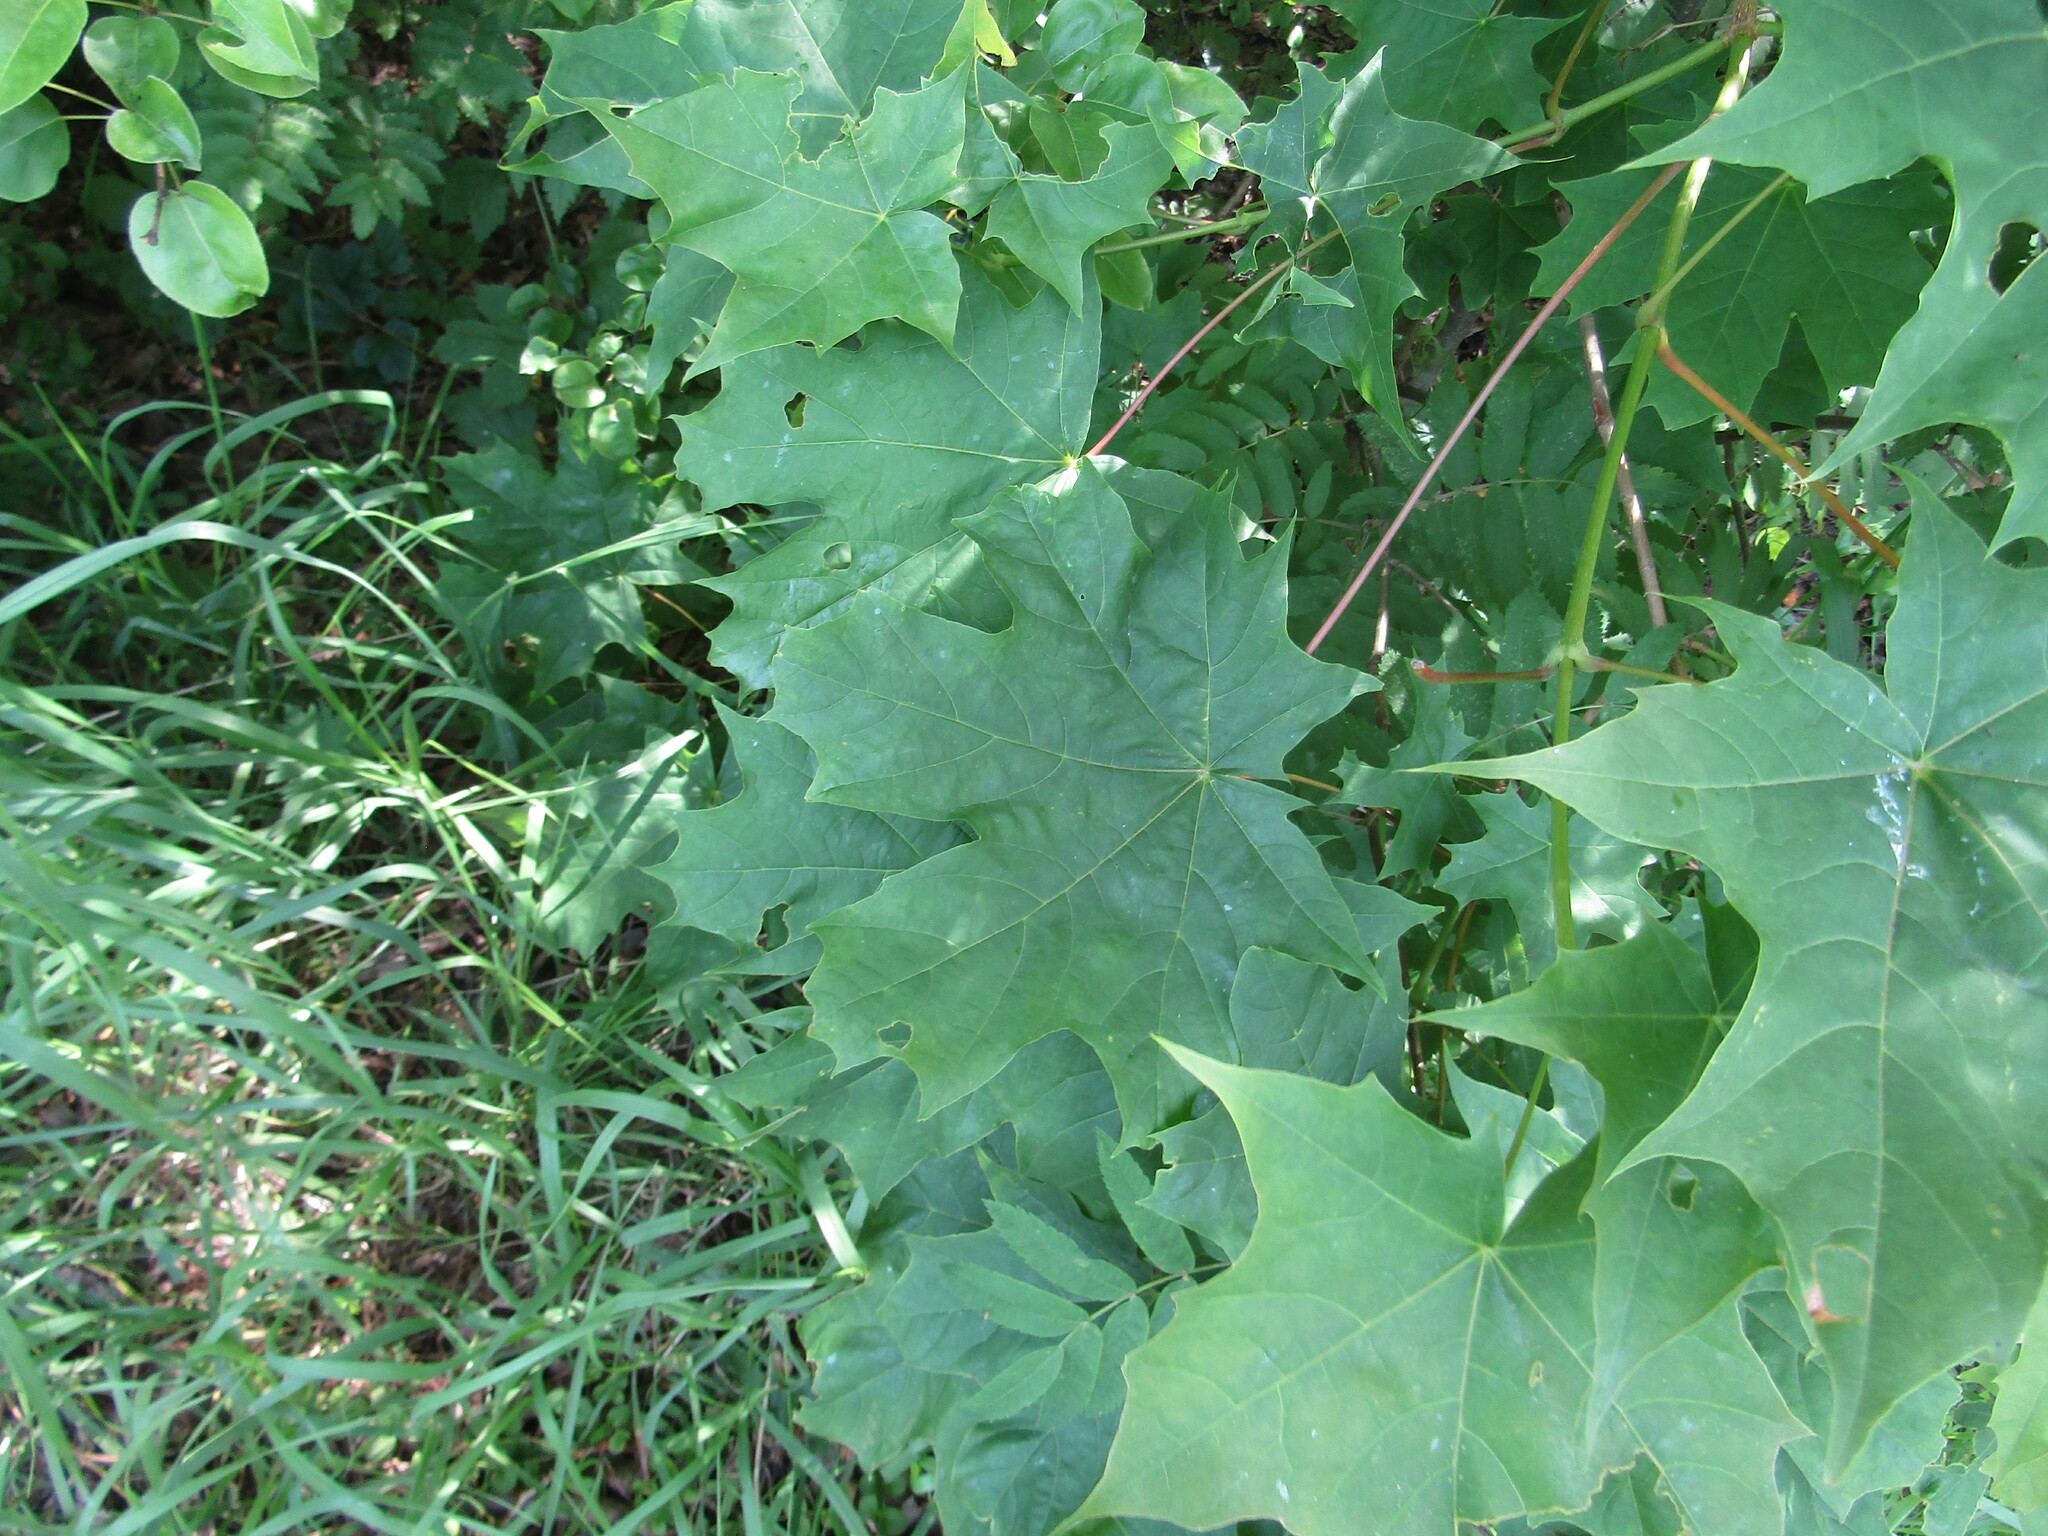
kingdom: Plantae
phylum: Tracheophyta
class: Magnoliopsida
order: Sapindales
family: Sapindaceae
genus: Acer
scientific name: Acer platanoides
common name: Norway maple
